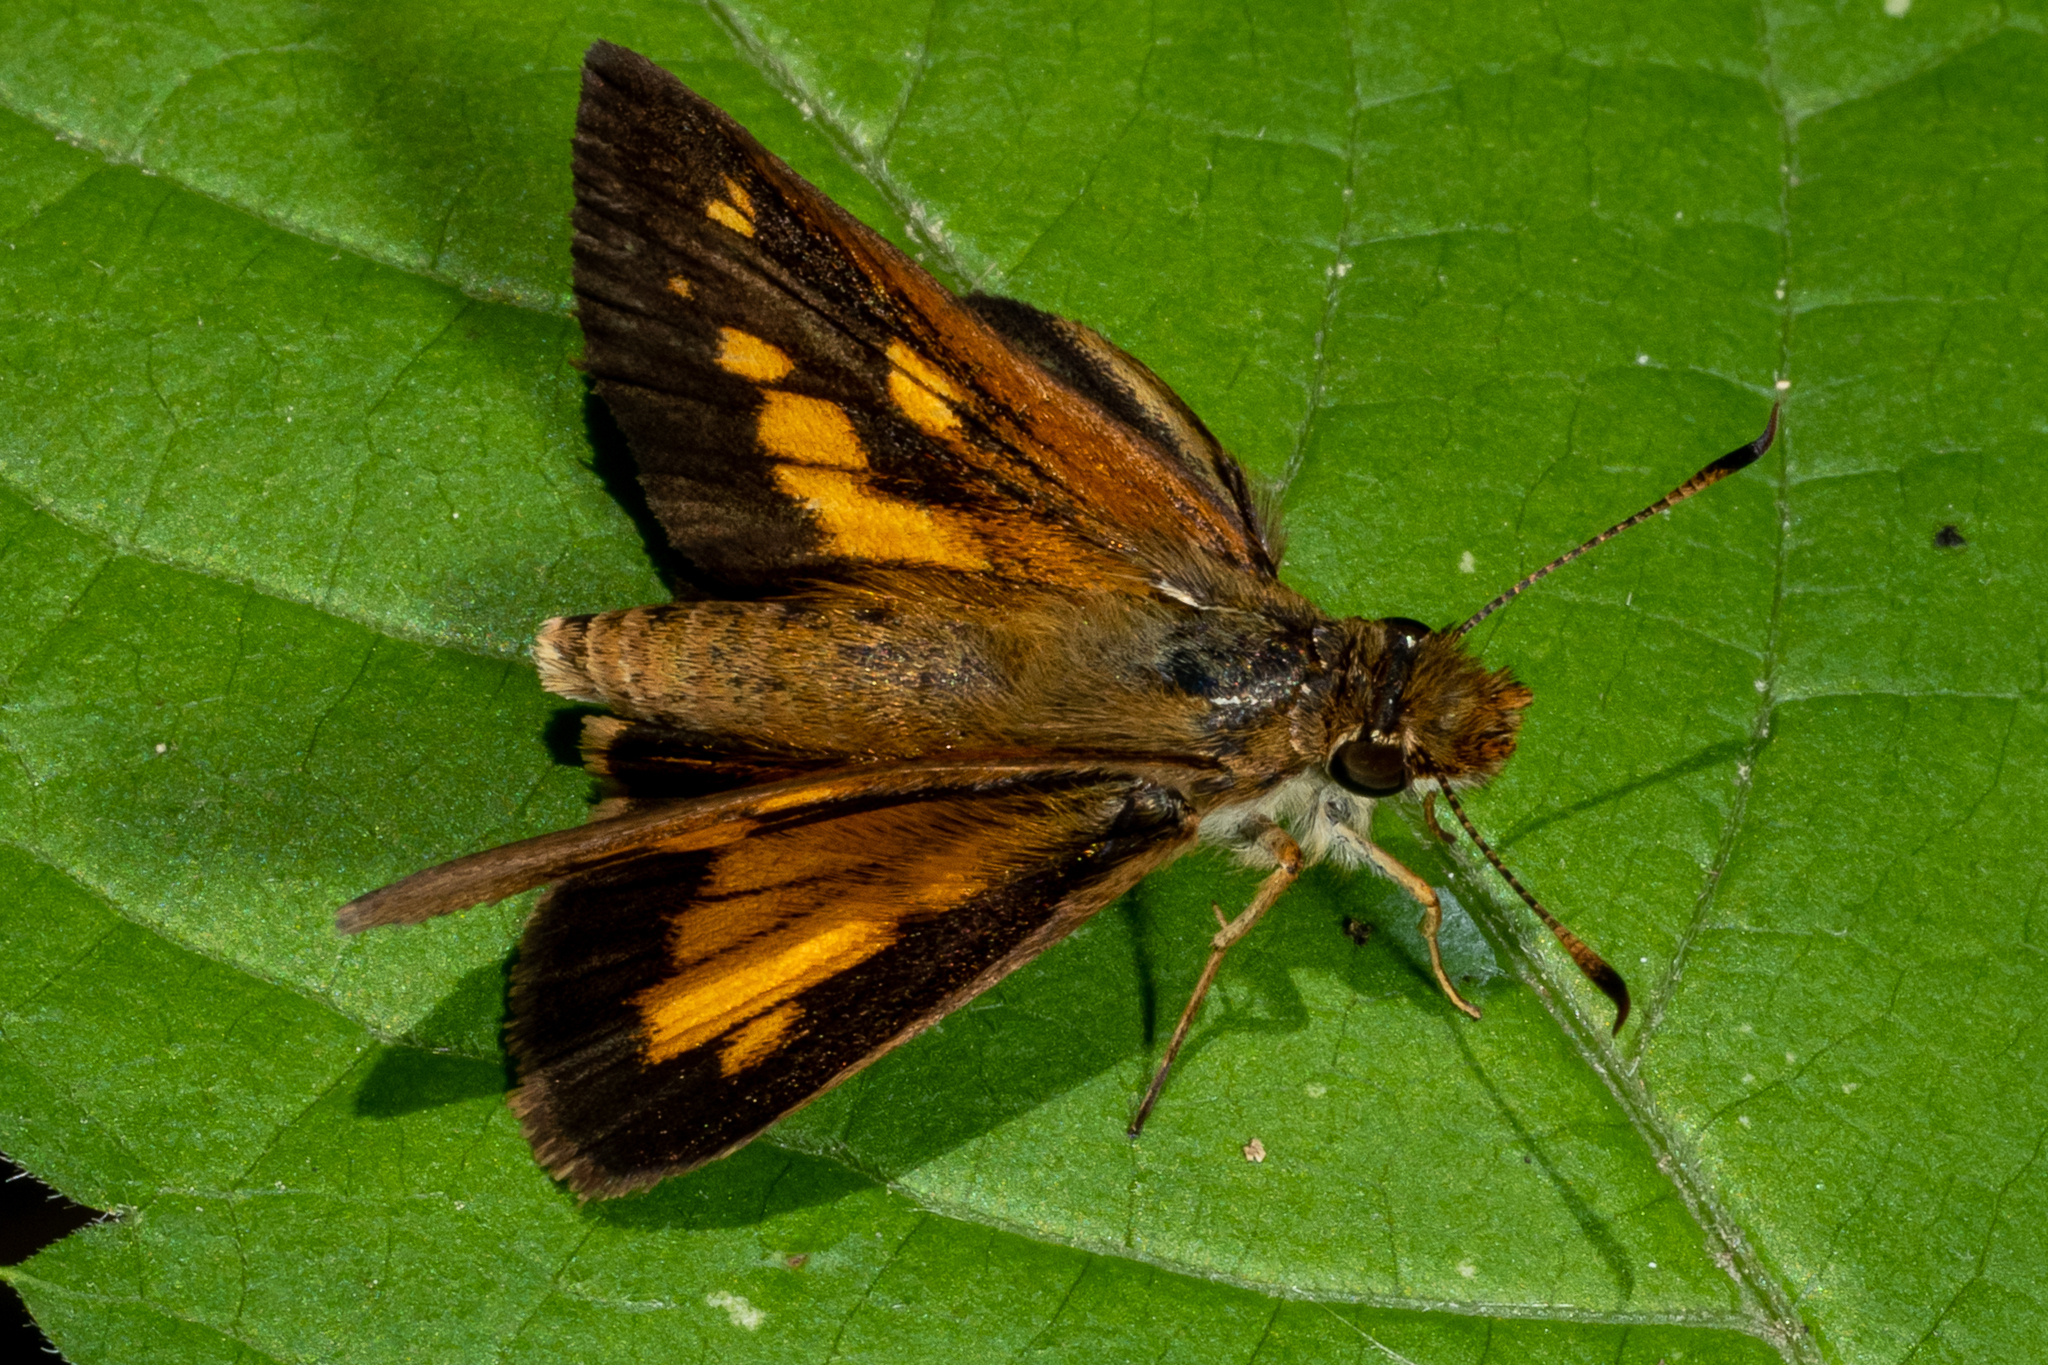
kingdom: Animalia
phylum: Arthropoda
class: Insecta
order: Lepidoptera
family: Hesperiidae
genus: Poanes
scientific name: Poanes viator
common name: Broad-winged skipper
